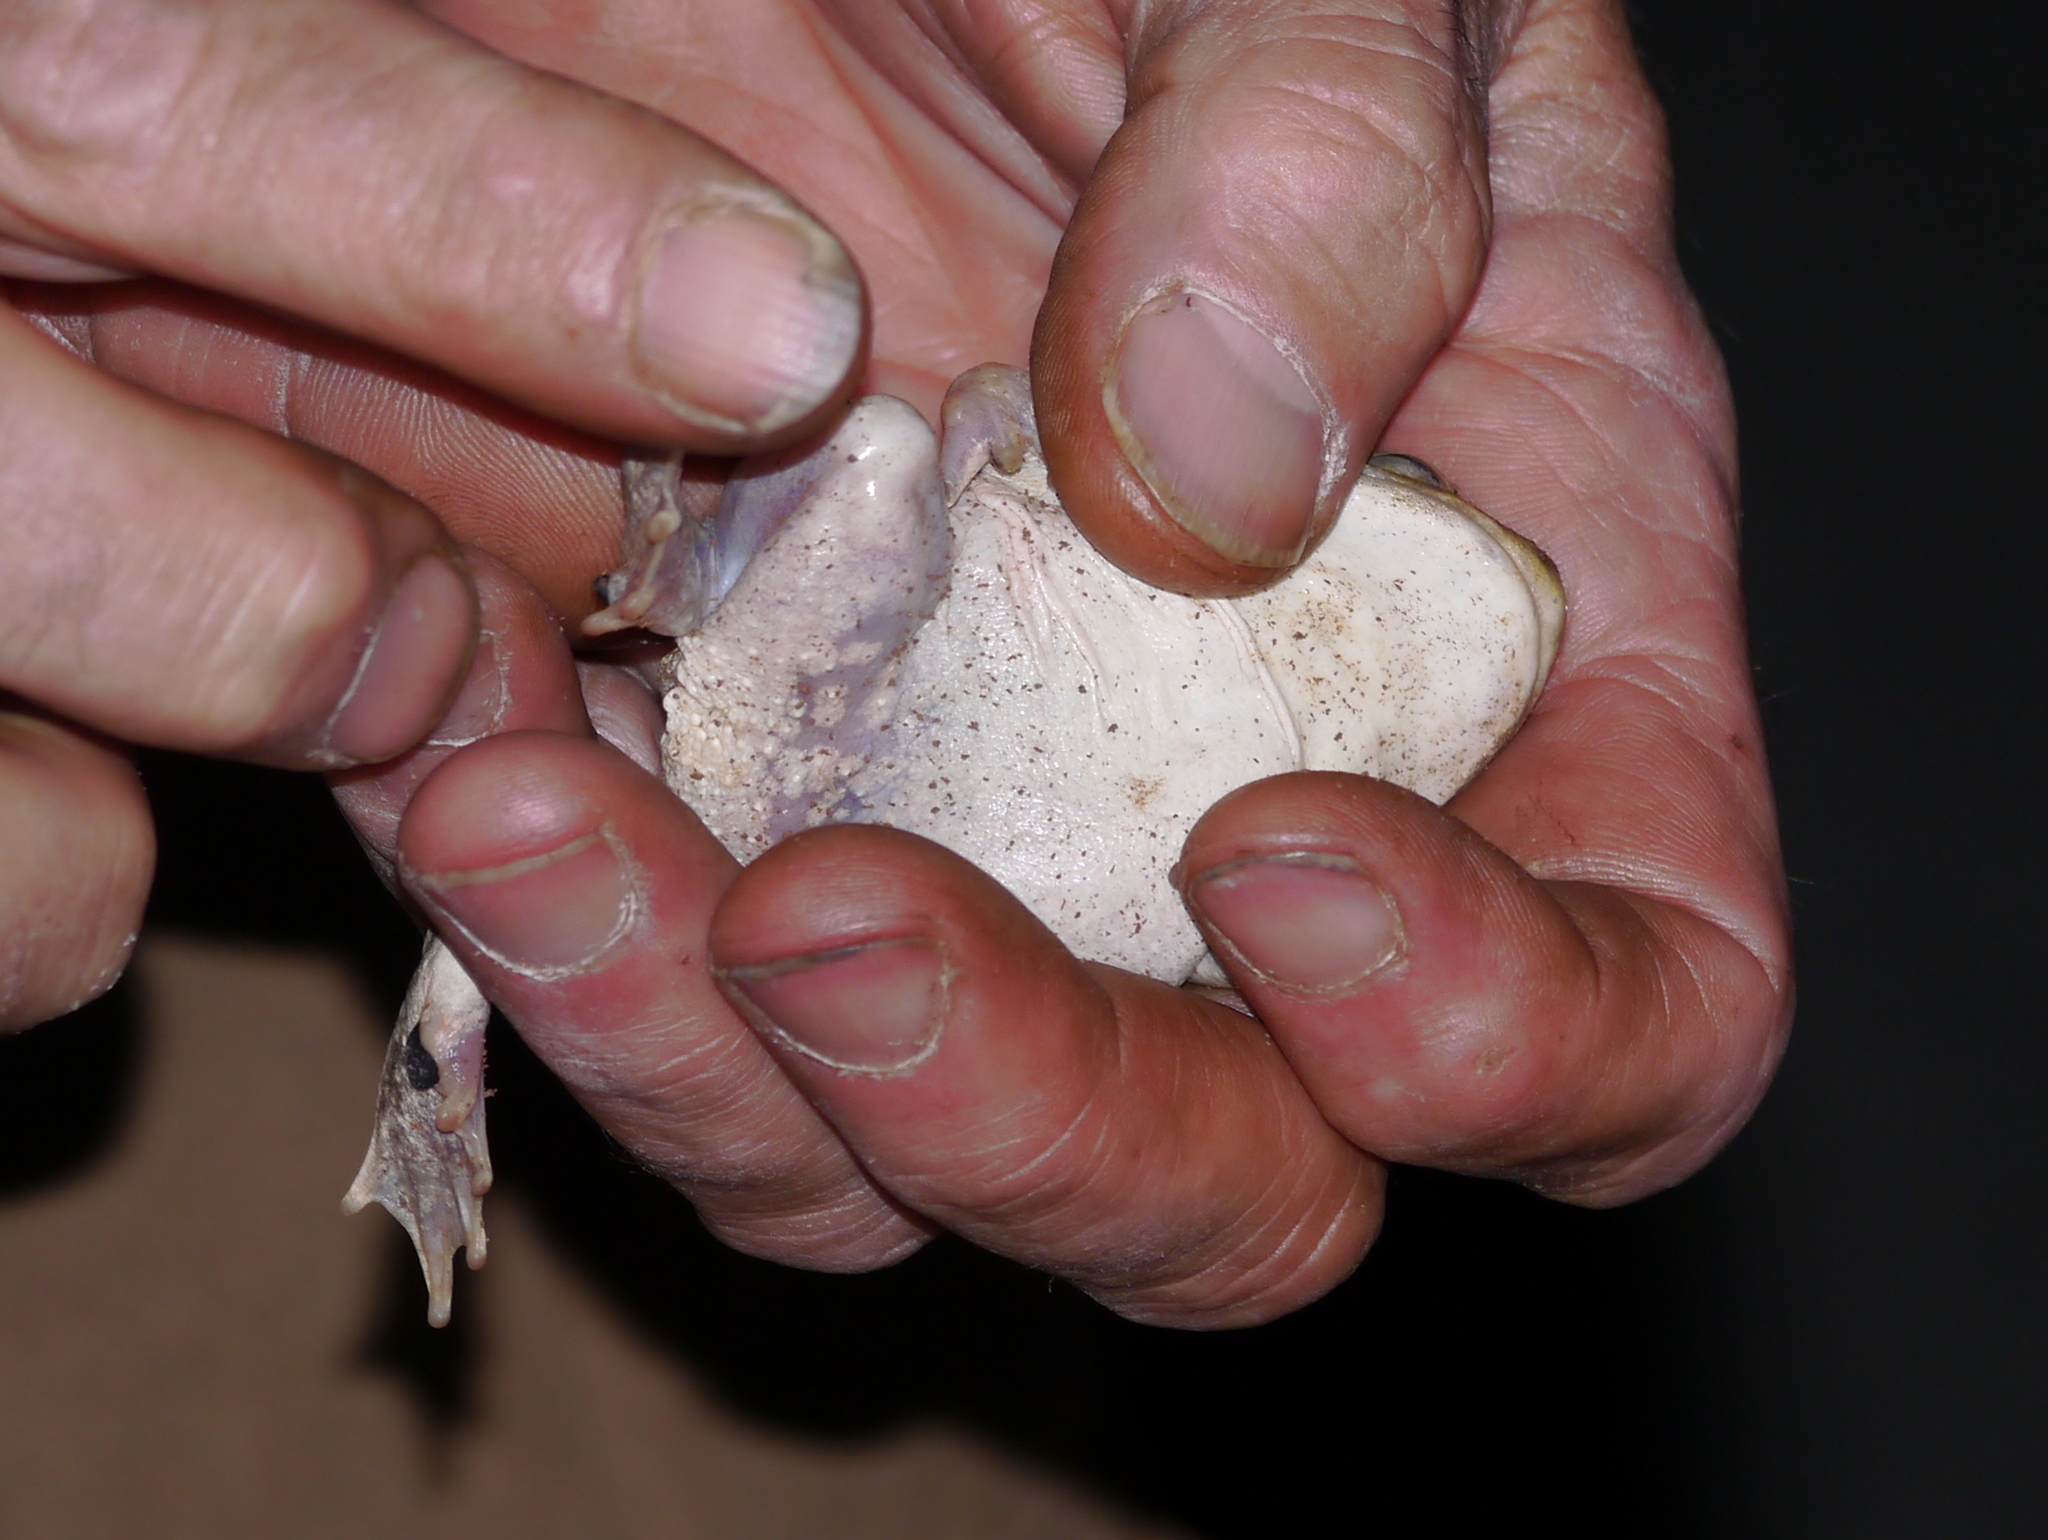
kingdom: Animalia
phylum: Chordata
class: Amphibia
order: Anura
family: Scaphiopodidae
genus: Scaphiopus
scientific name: Scaphiopus couchii
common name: Couch's spadefoot toad
